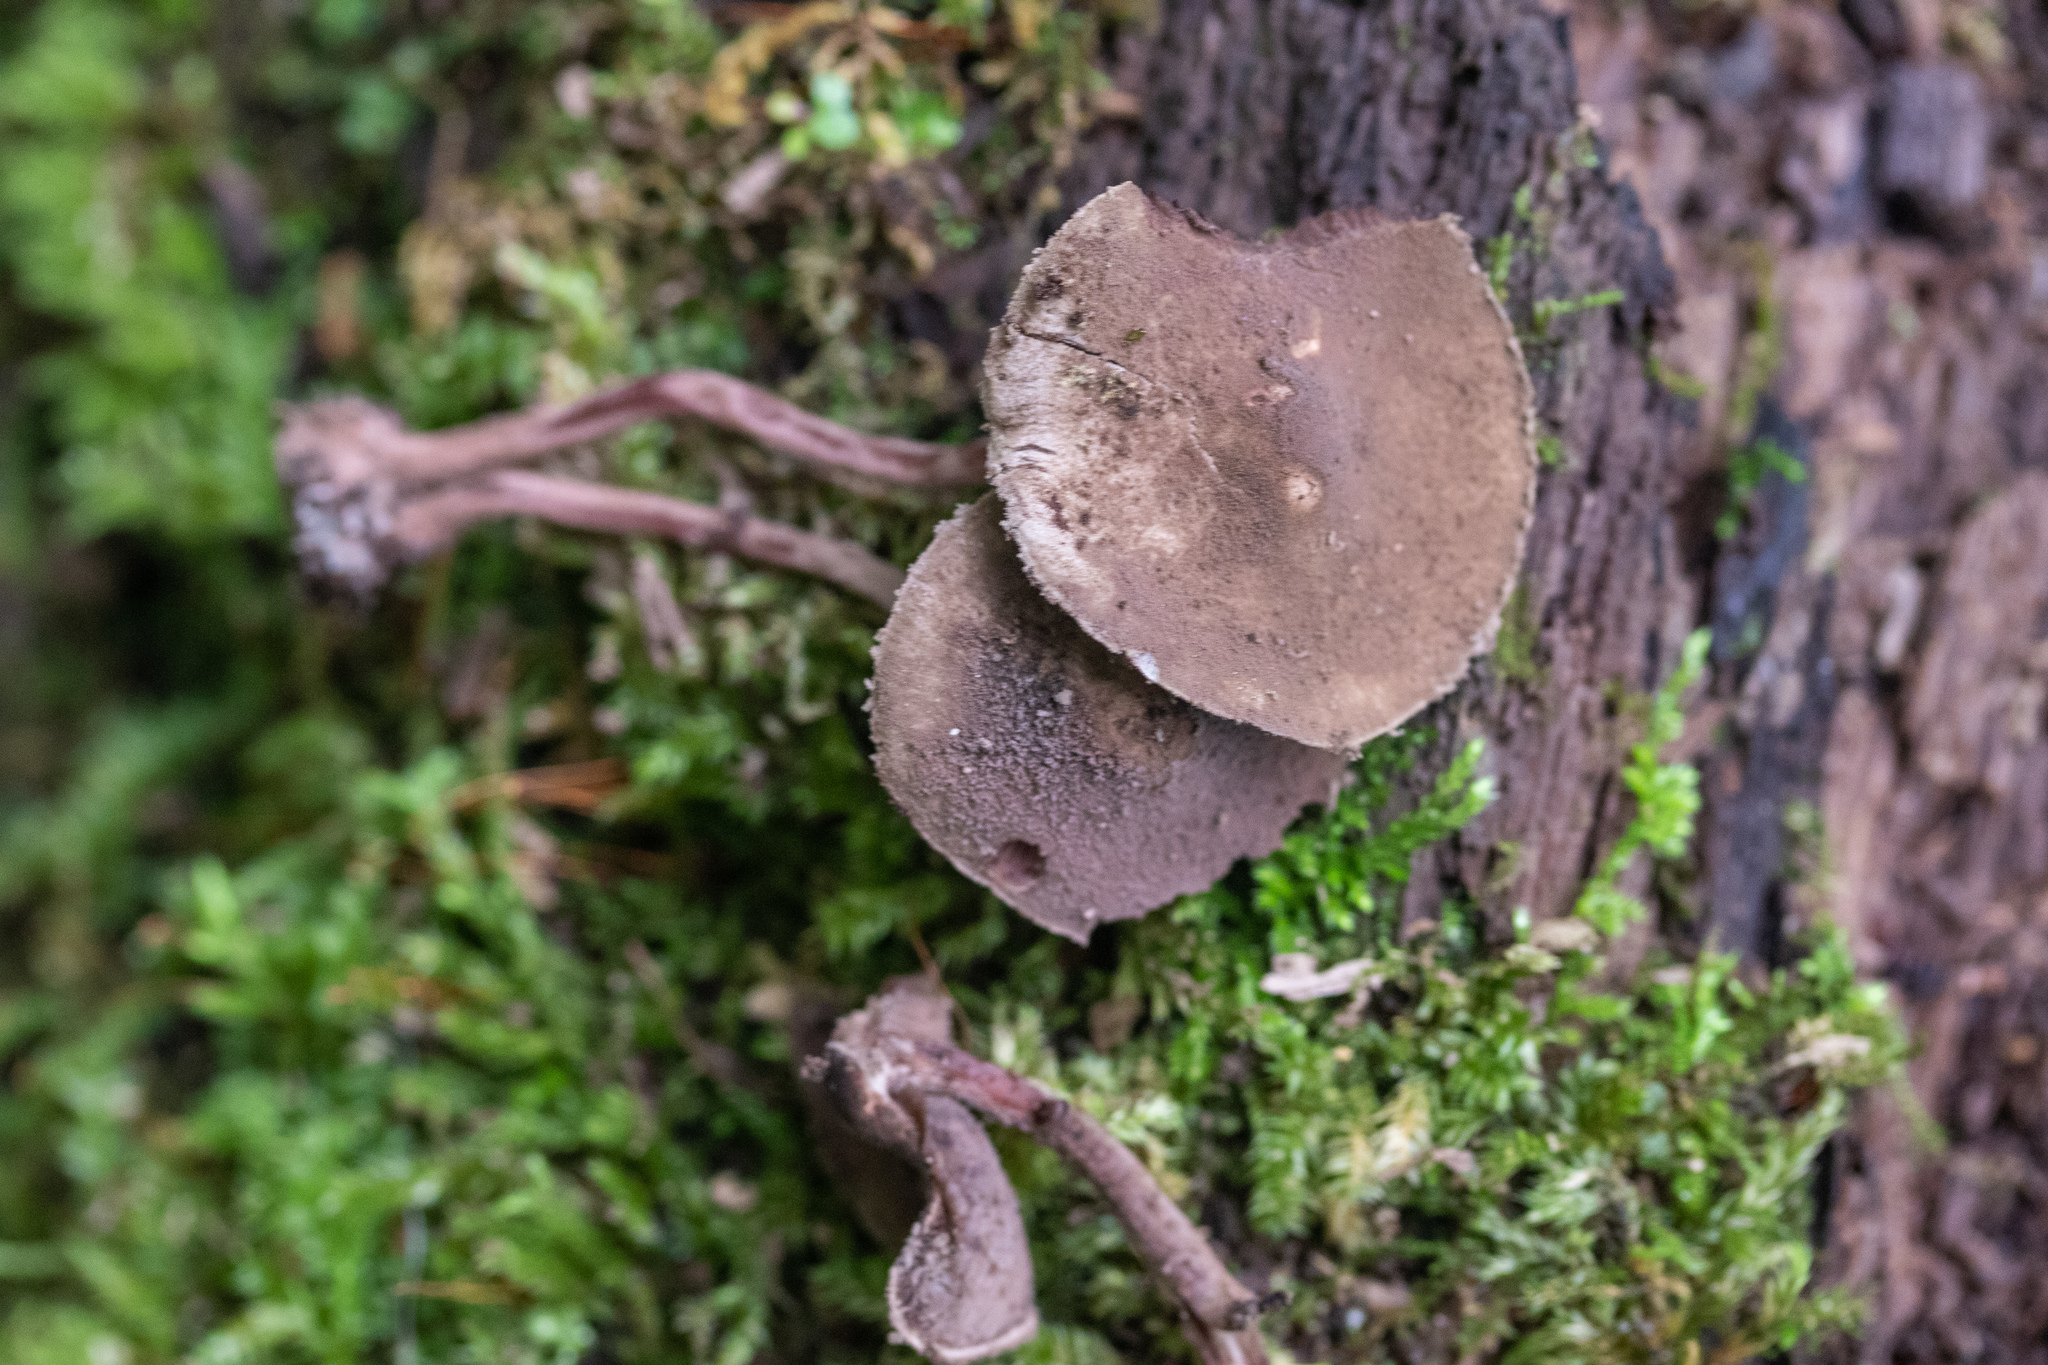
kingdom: Fungi
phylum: Basidiomycota
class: Agaricomycetes
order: Agaricales
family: Agaricaceae
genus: Melanophyllum
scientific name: Melanophyllum haematospermum
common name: Redspored dapperling
